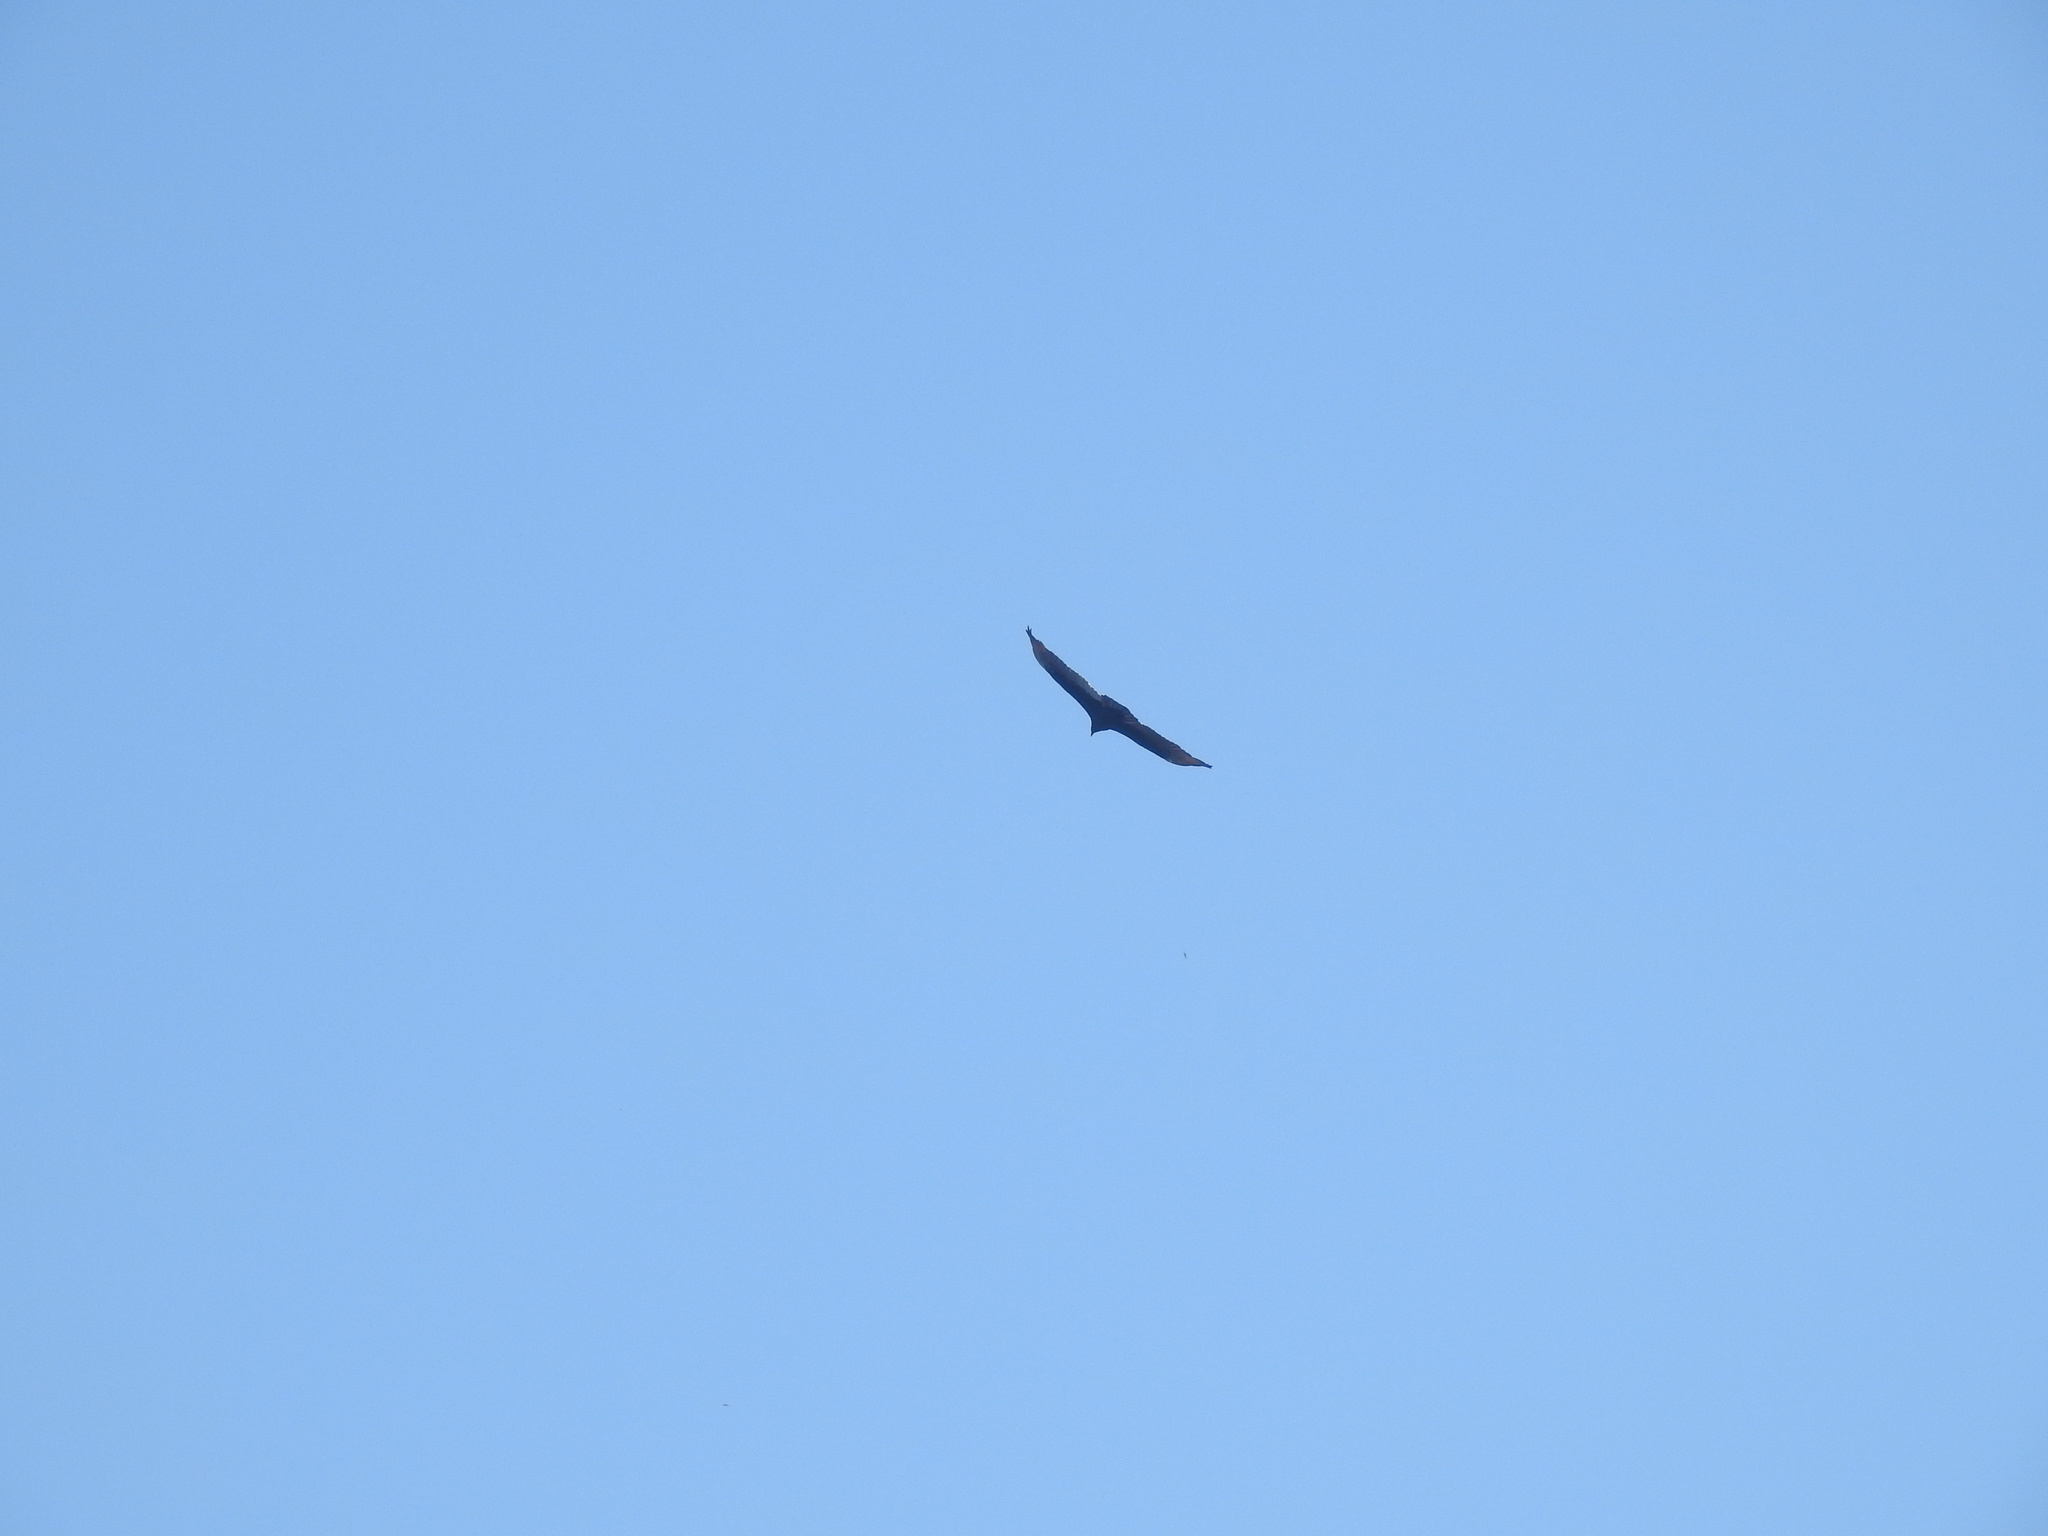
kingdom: Animalia
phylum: Chordata
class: Aves
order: Accipitriformes
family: Cathartidae
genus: Cathartes
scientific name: Cathartes aura
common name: Turkey vulture
